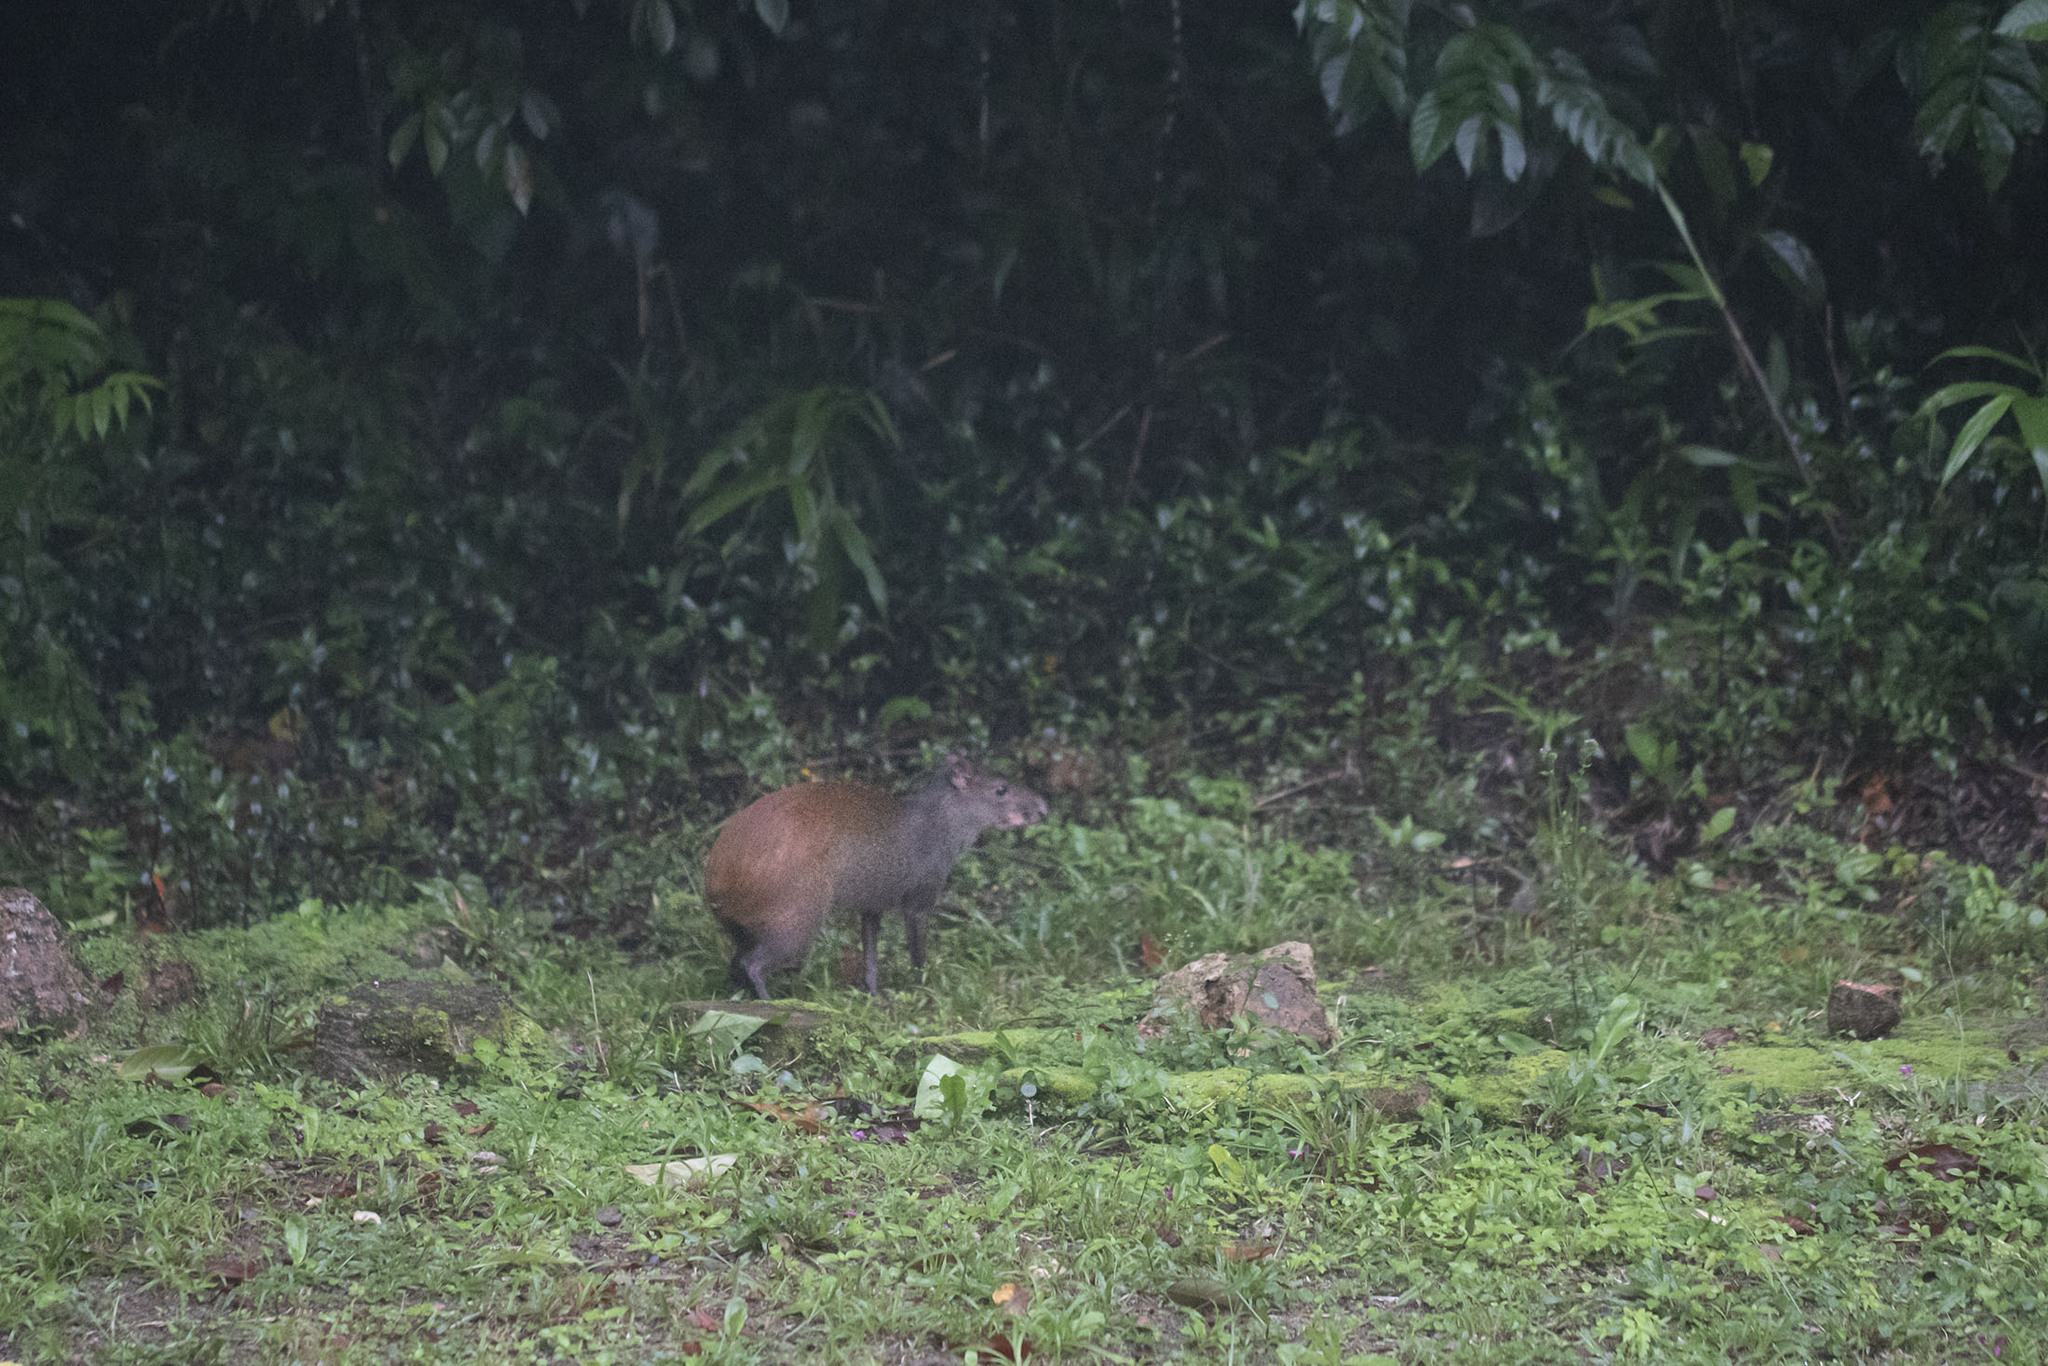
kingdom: Animalia
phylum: Chordata
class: Mammalia
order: Rodentia
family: Dasyproctidae
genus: Dasyprocta
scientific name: Dasyprocta leporina
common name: Red-rumped agouti
